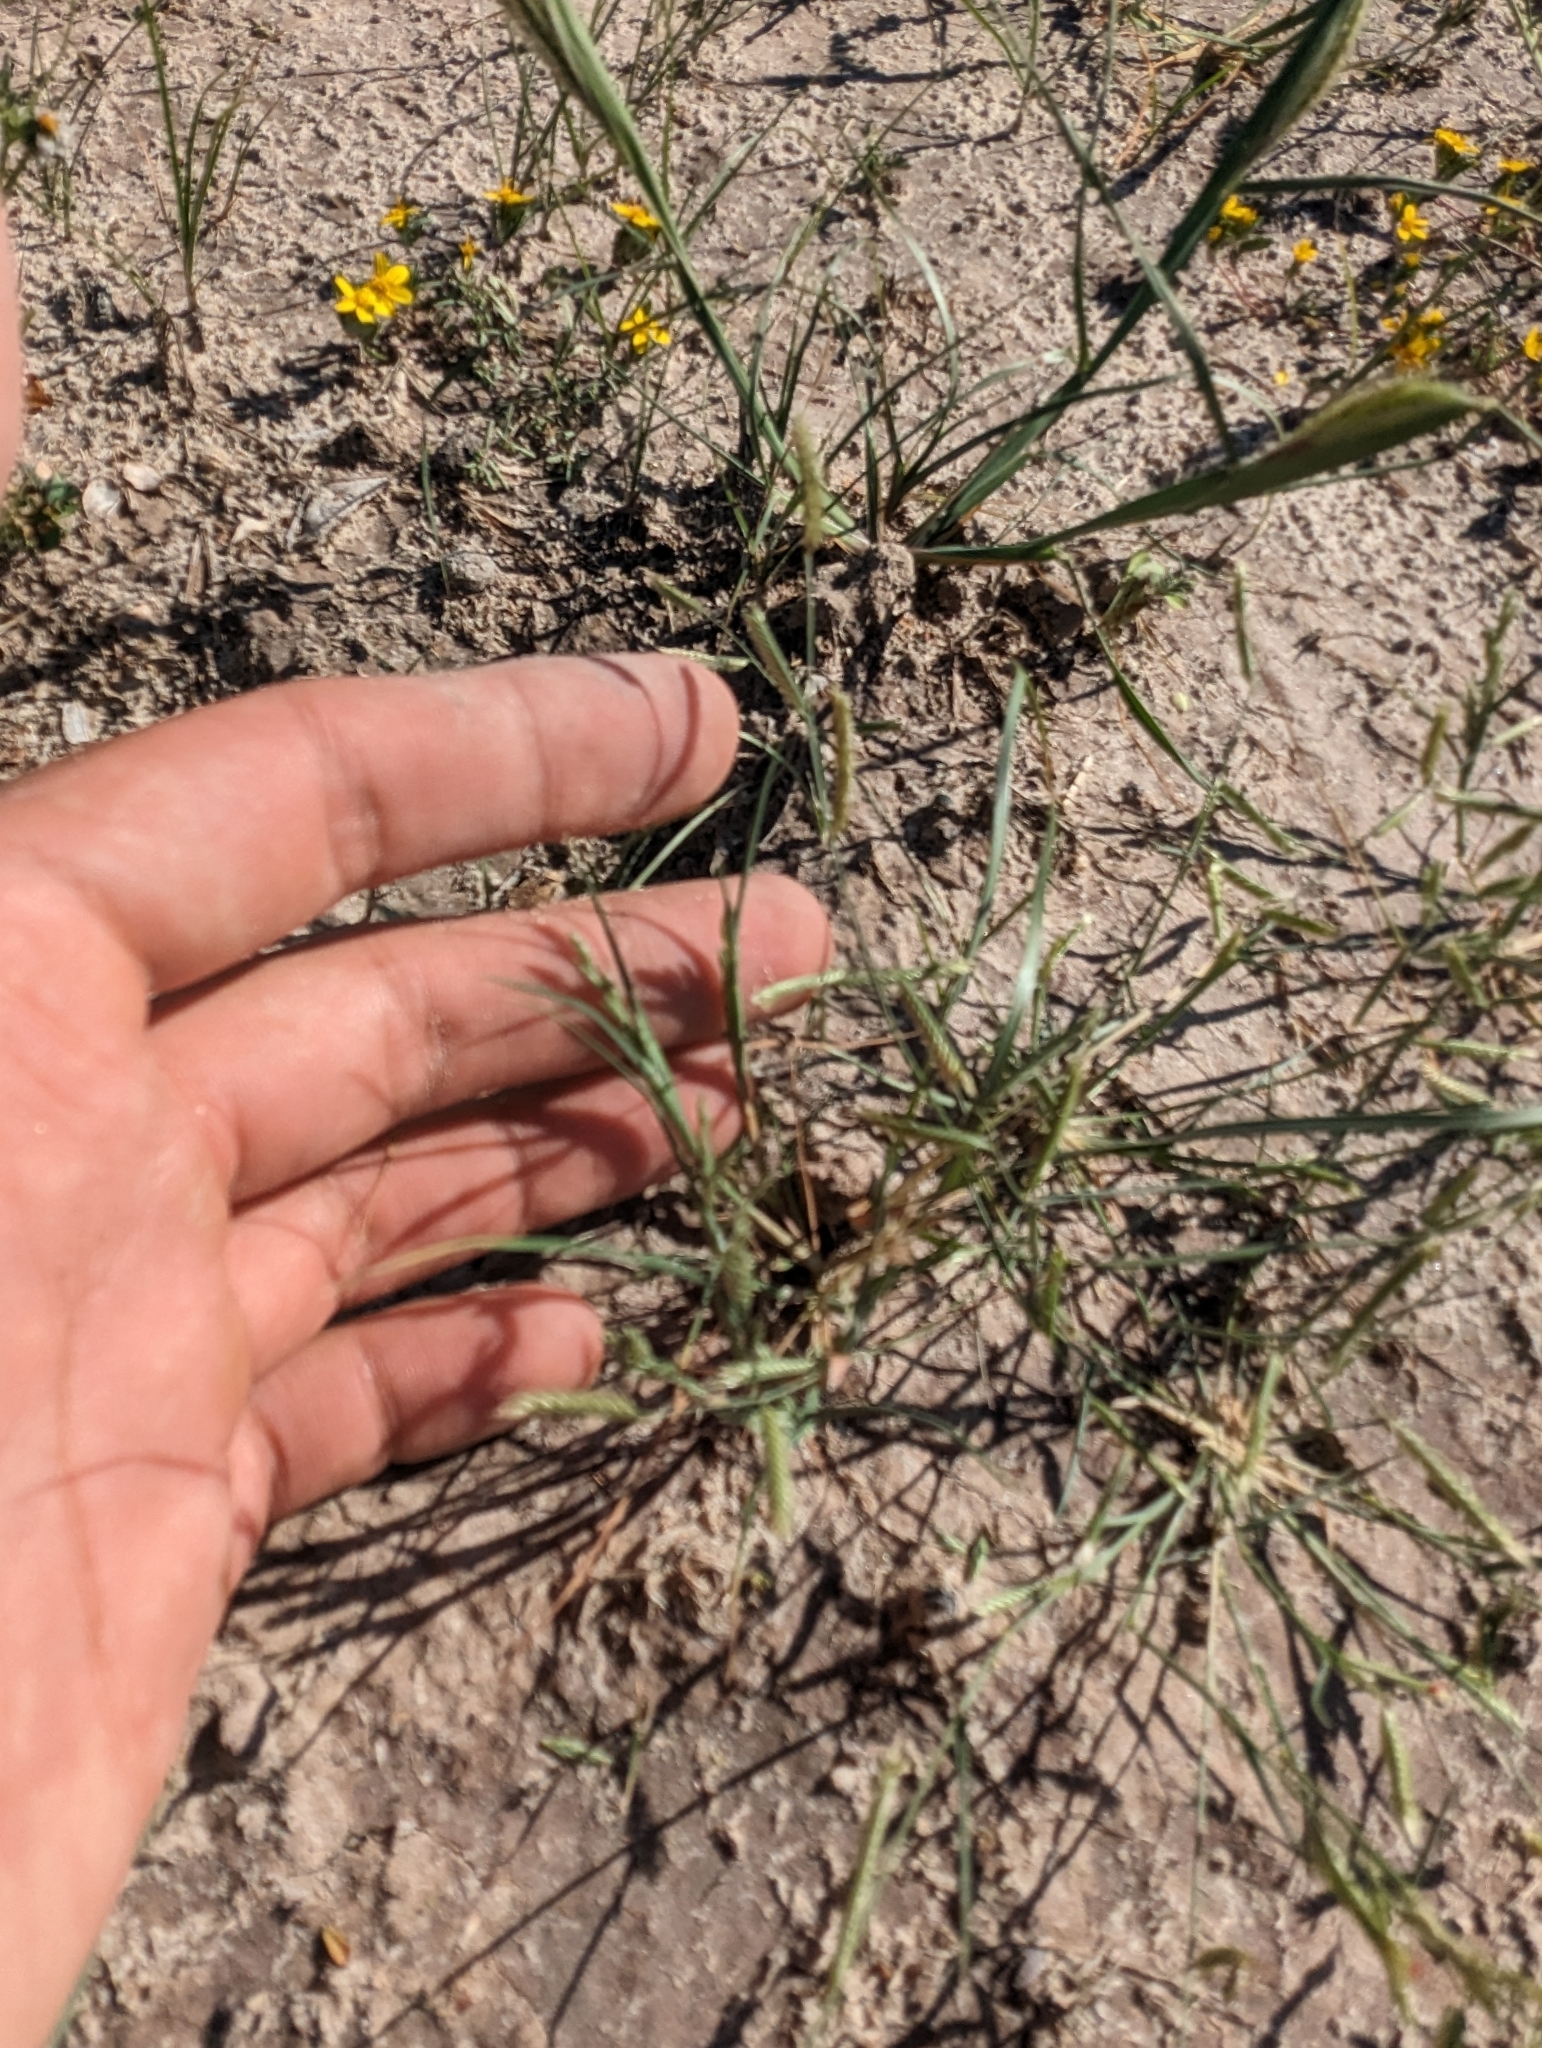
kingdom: Plantae
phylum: Tracheophyta
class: Liliopsida
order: Poales
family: Poaceae
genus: Bouteloua
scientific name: Bouteloua barbata
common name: Six-weeks grama
